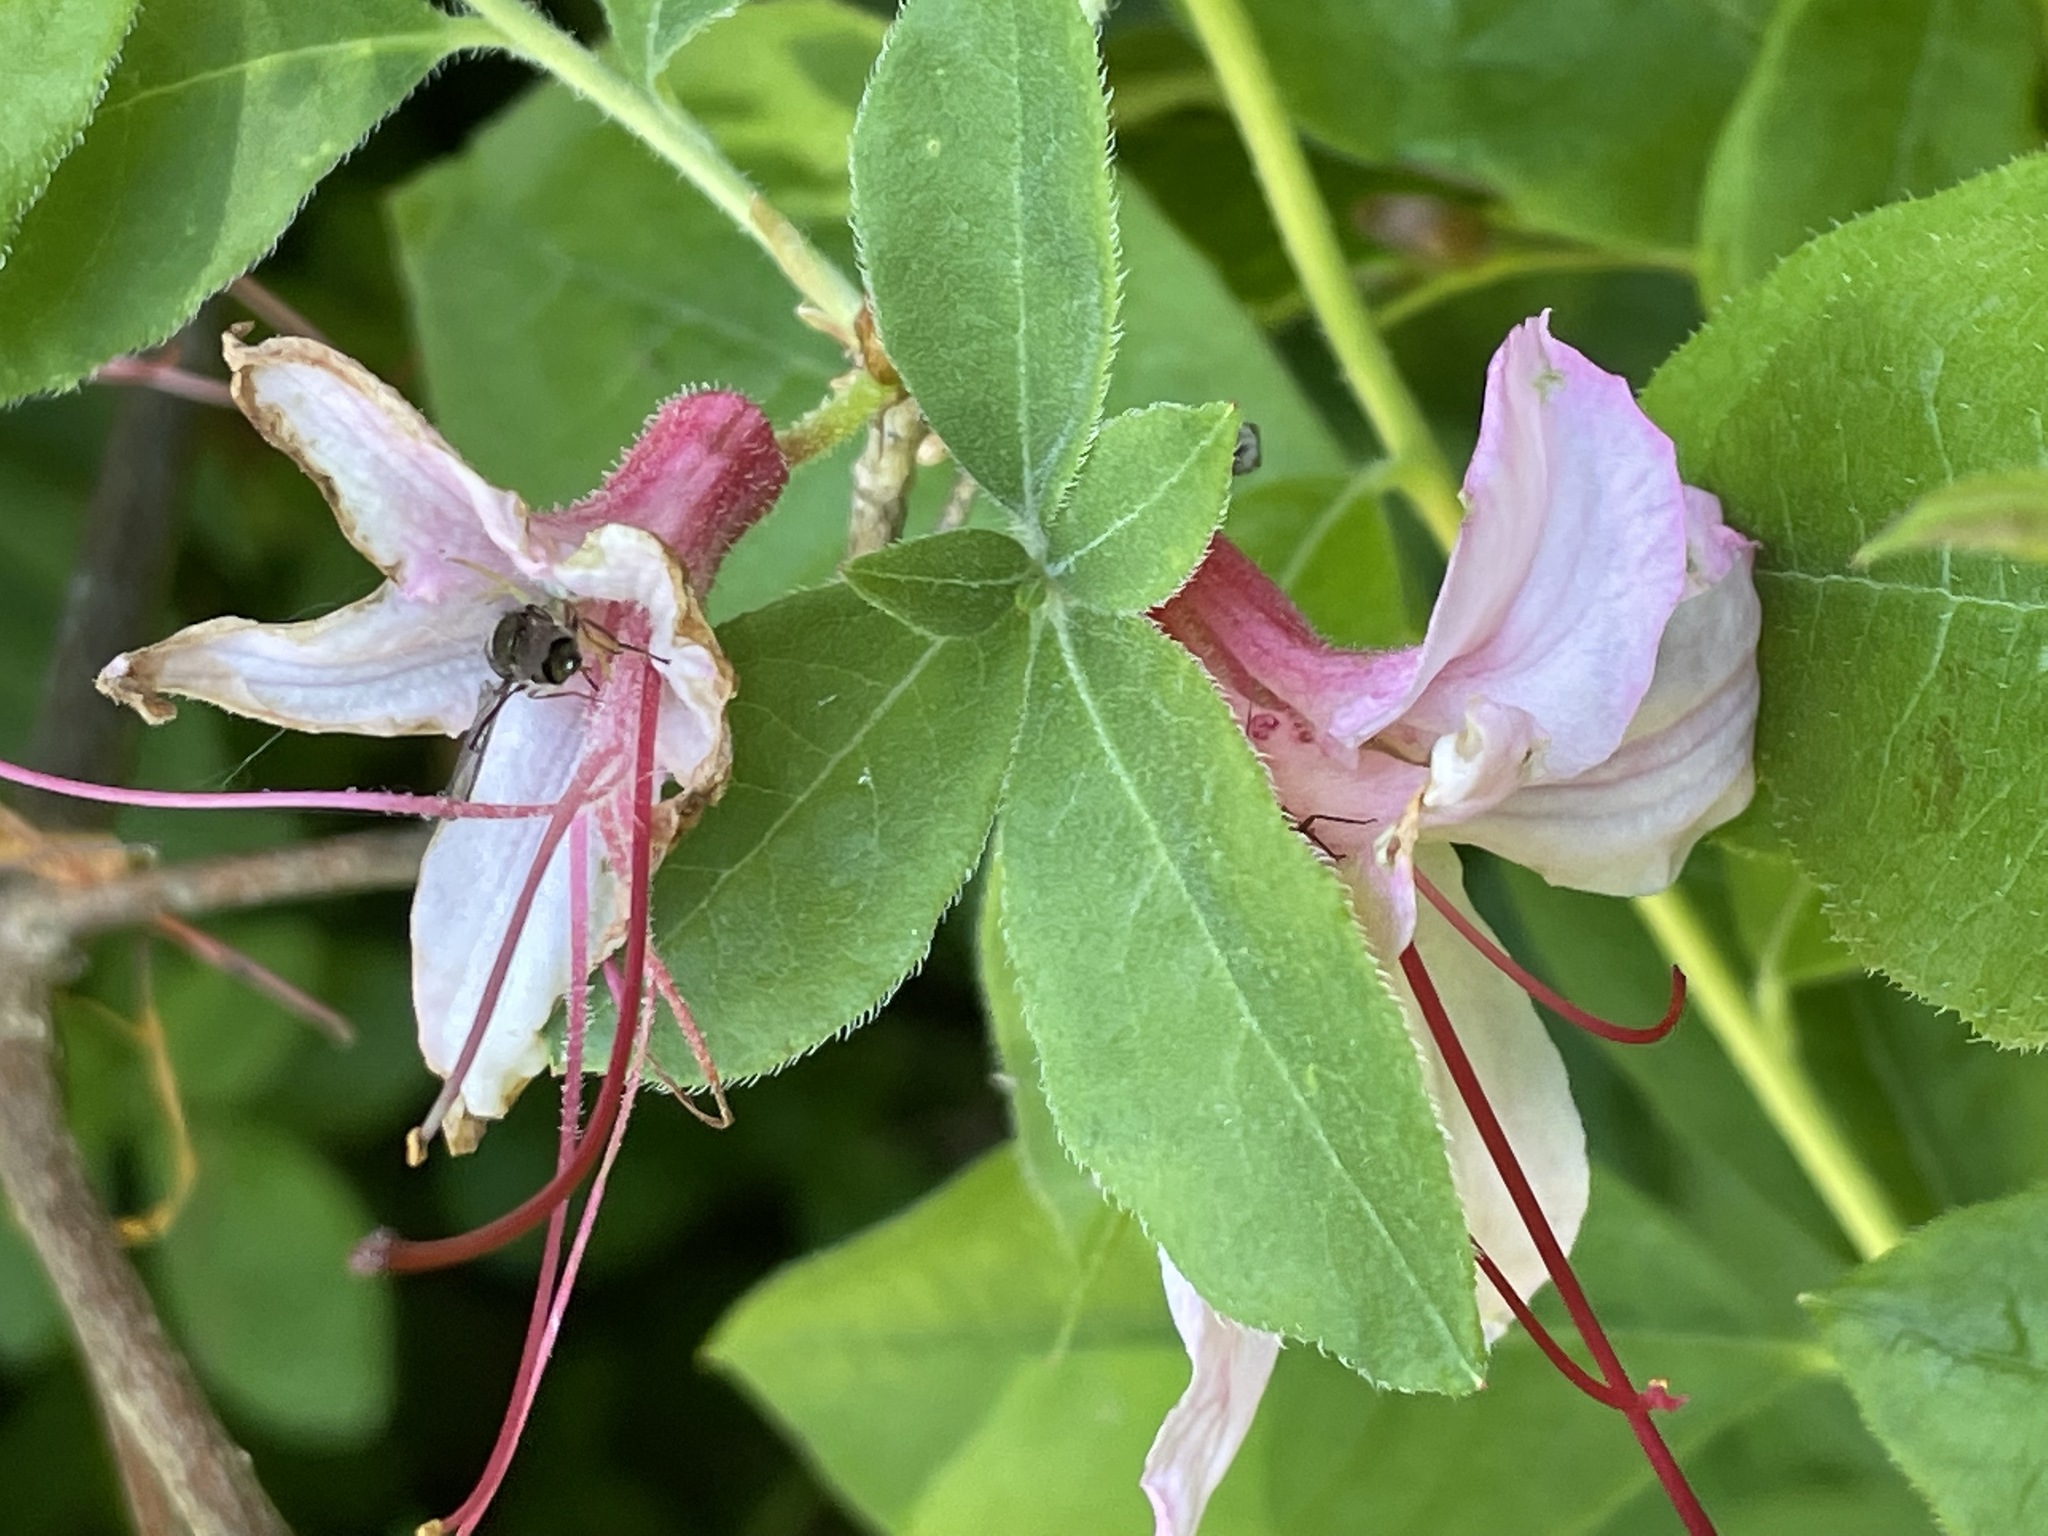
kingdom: Plantae
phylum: Tracheophyta
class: Magnoliopsida
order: Ericales
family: Ericaceae
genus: Rhododendron
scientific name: Rhododendron roseum
